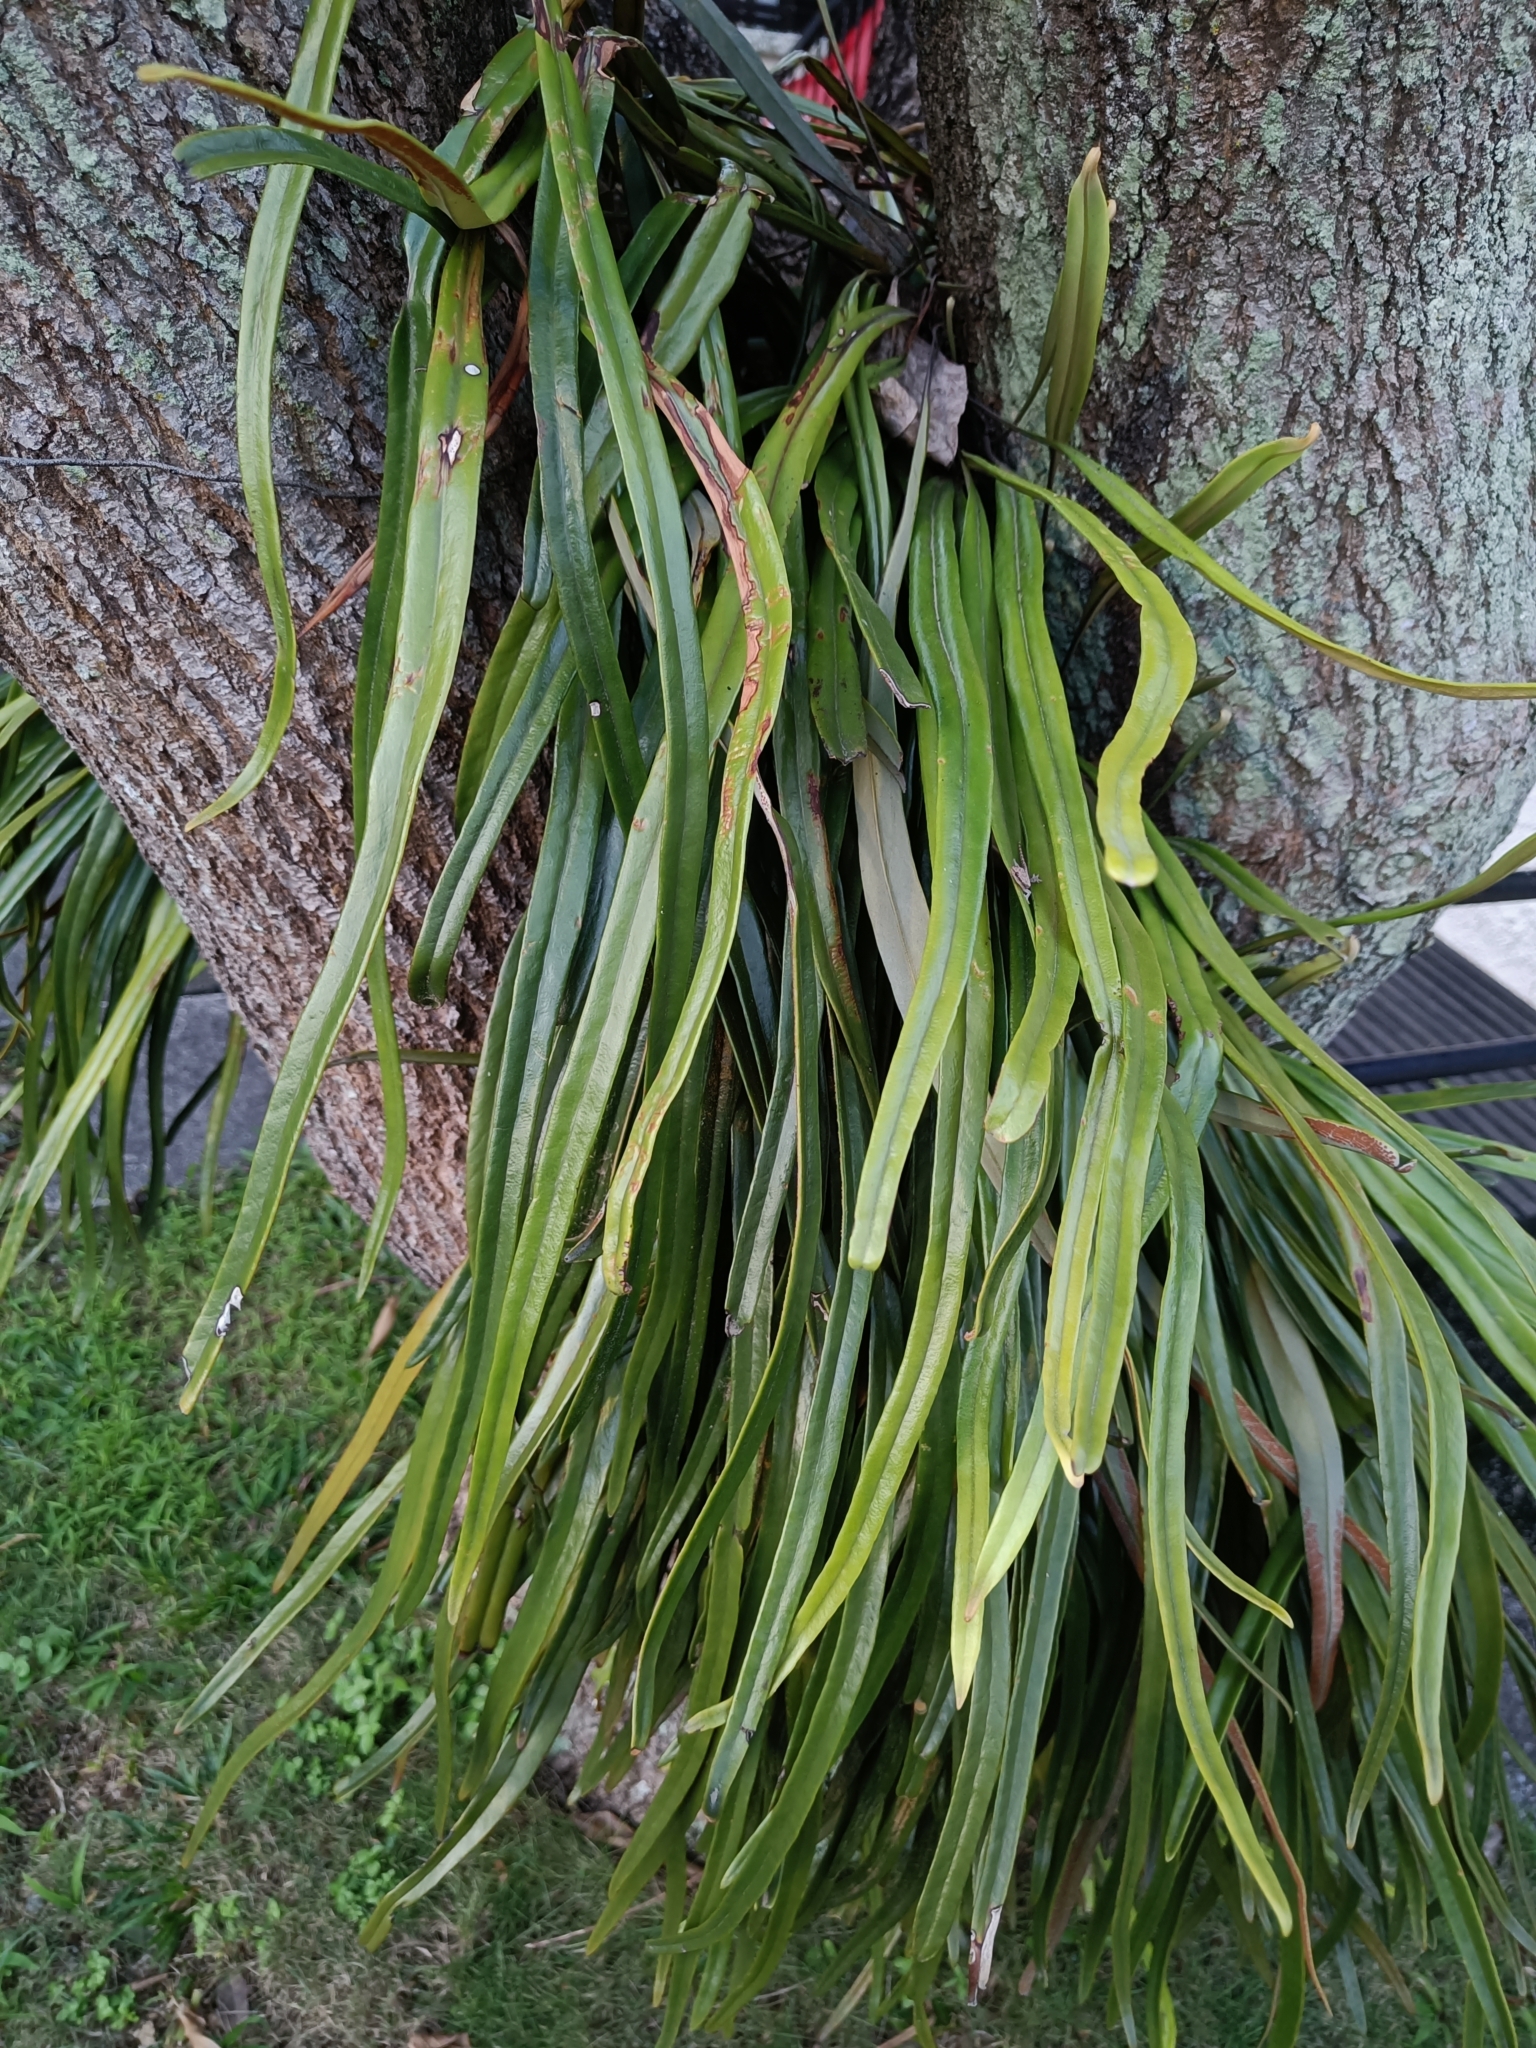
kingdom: Plantae
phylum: Tracheophyta
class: Polypodiopsida
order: Polypodiales
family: Polypodiaceae
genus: Pyrrosia
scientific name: Pyrrosia longifolia
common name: Long-leaved felt fern
